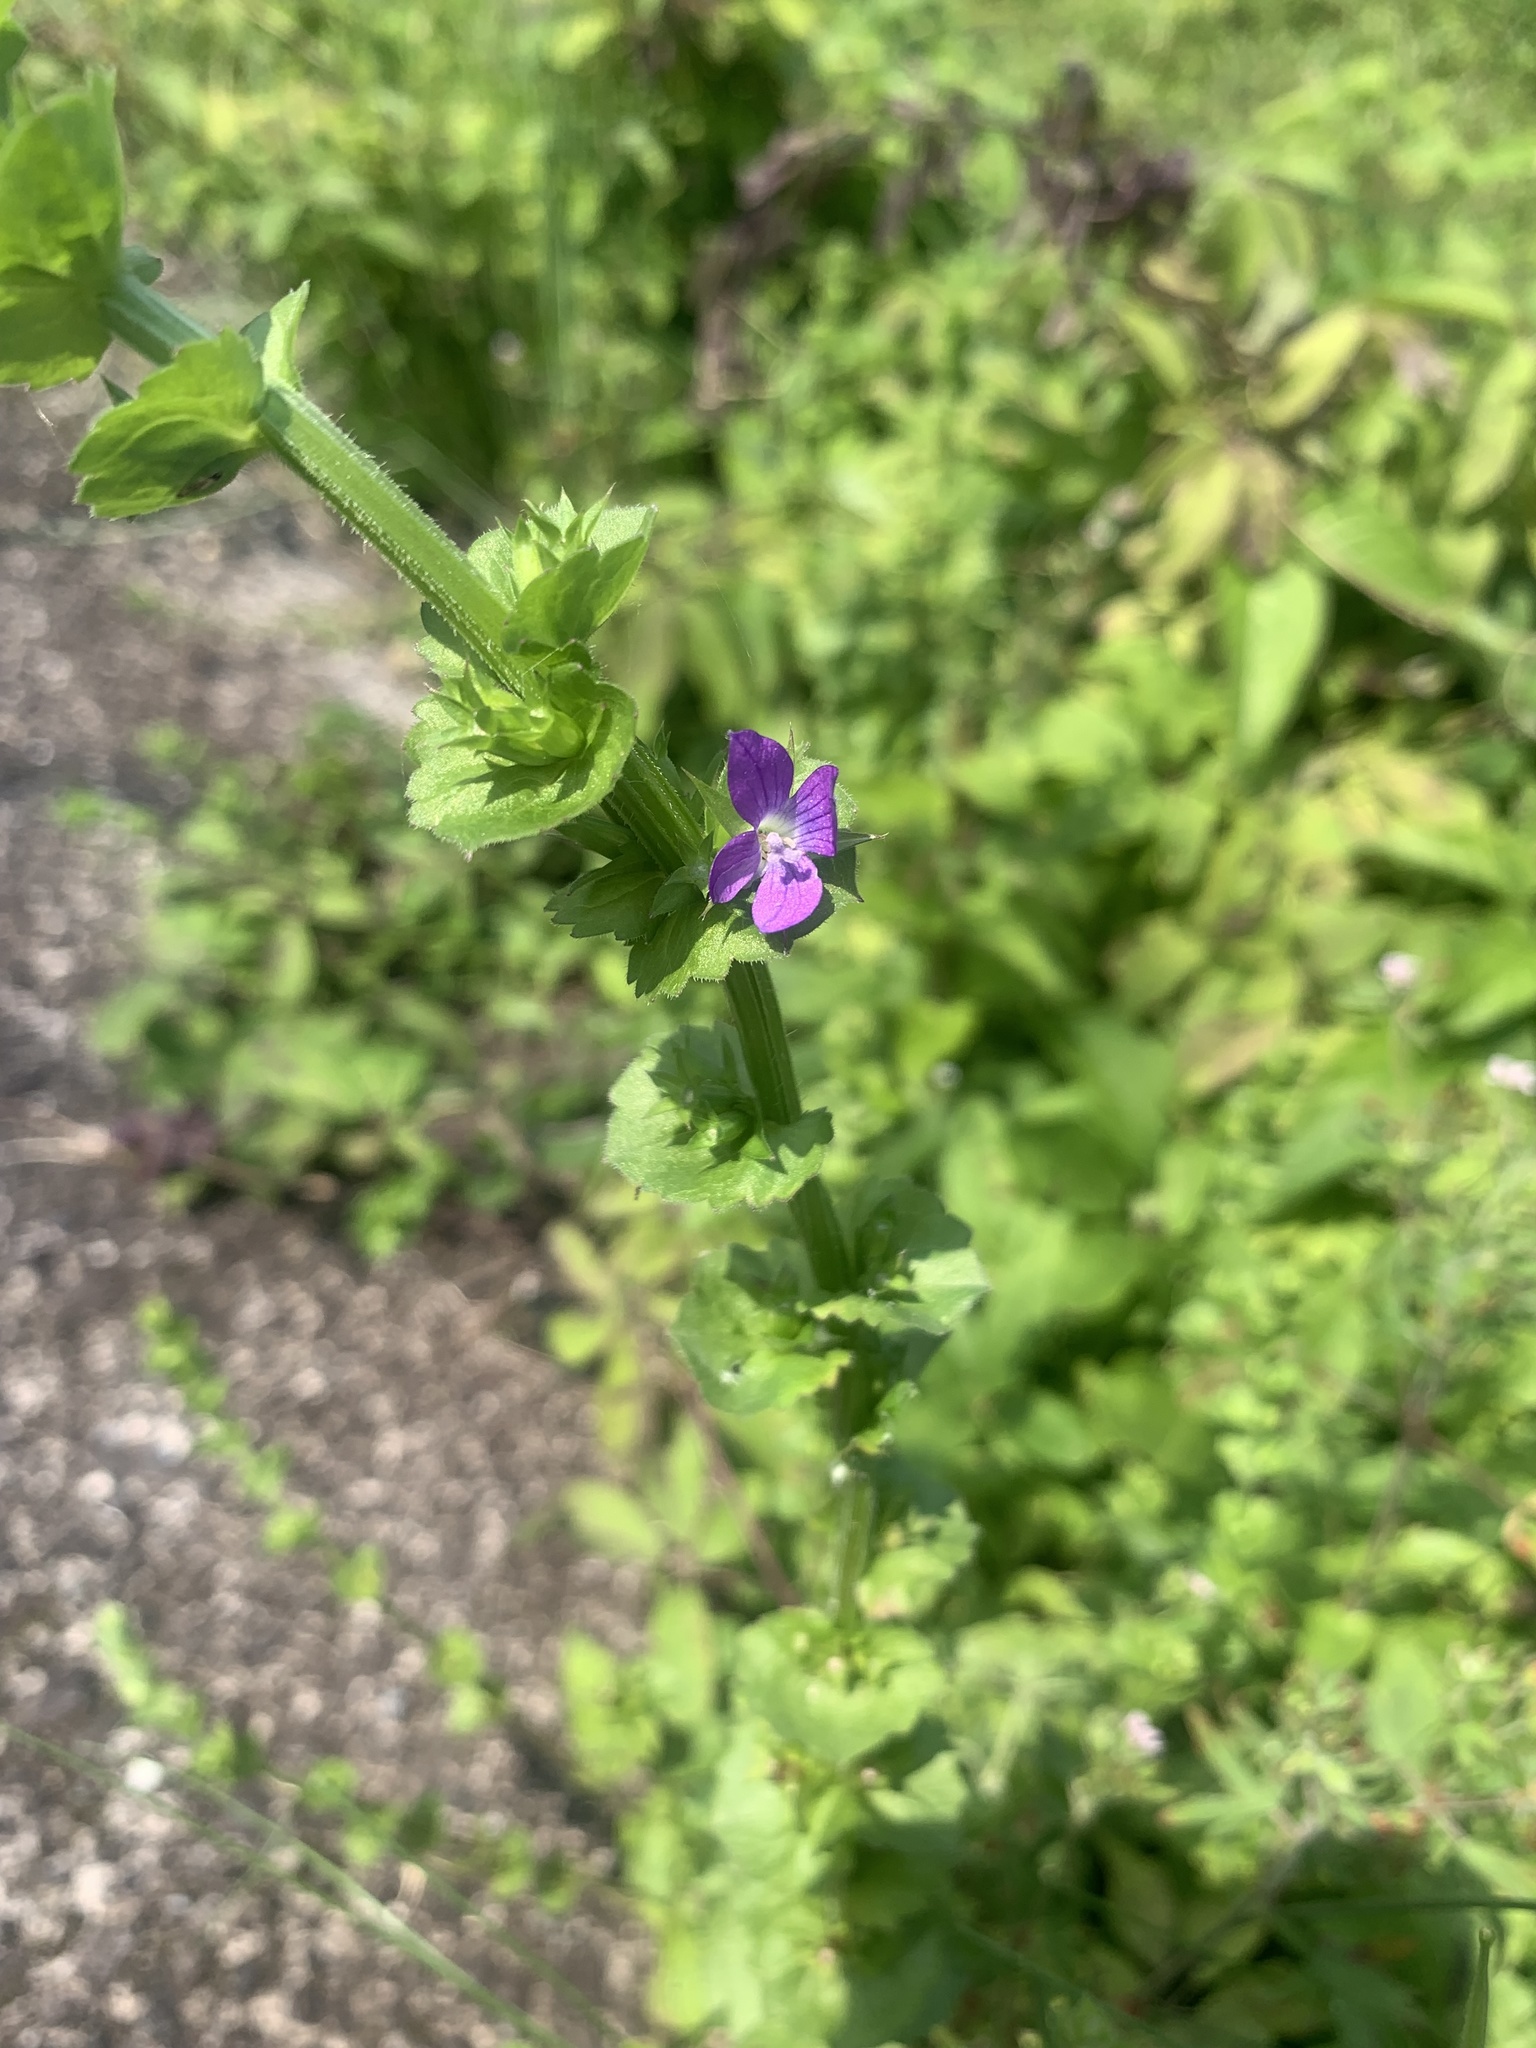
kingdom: Plantae
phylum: Tracheophyta
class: Magnoliopsida
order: Asterales
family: Campanulaceae
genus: Triodanis
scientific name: Triodanis perfoliata
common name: Clasping venus' looking-glass
